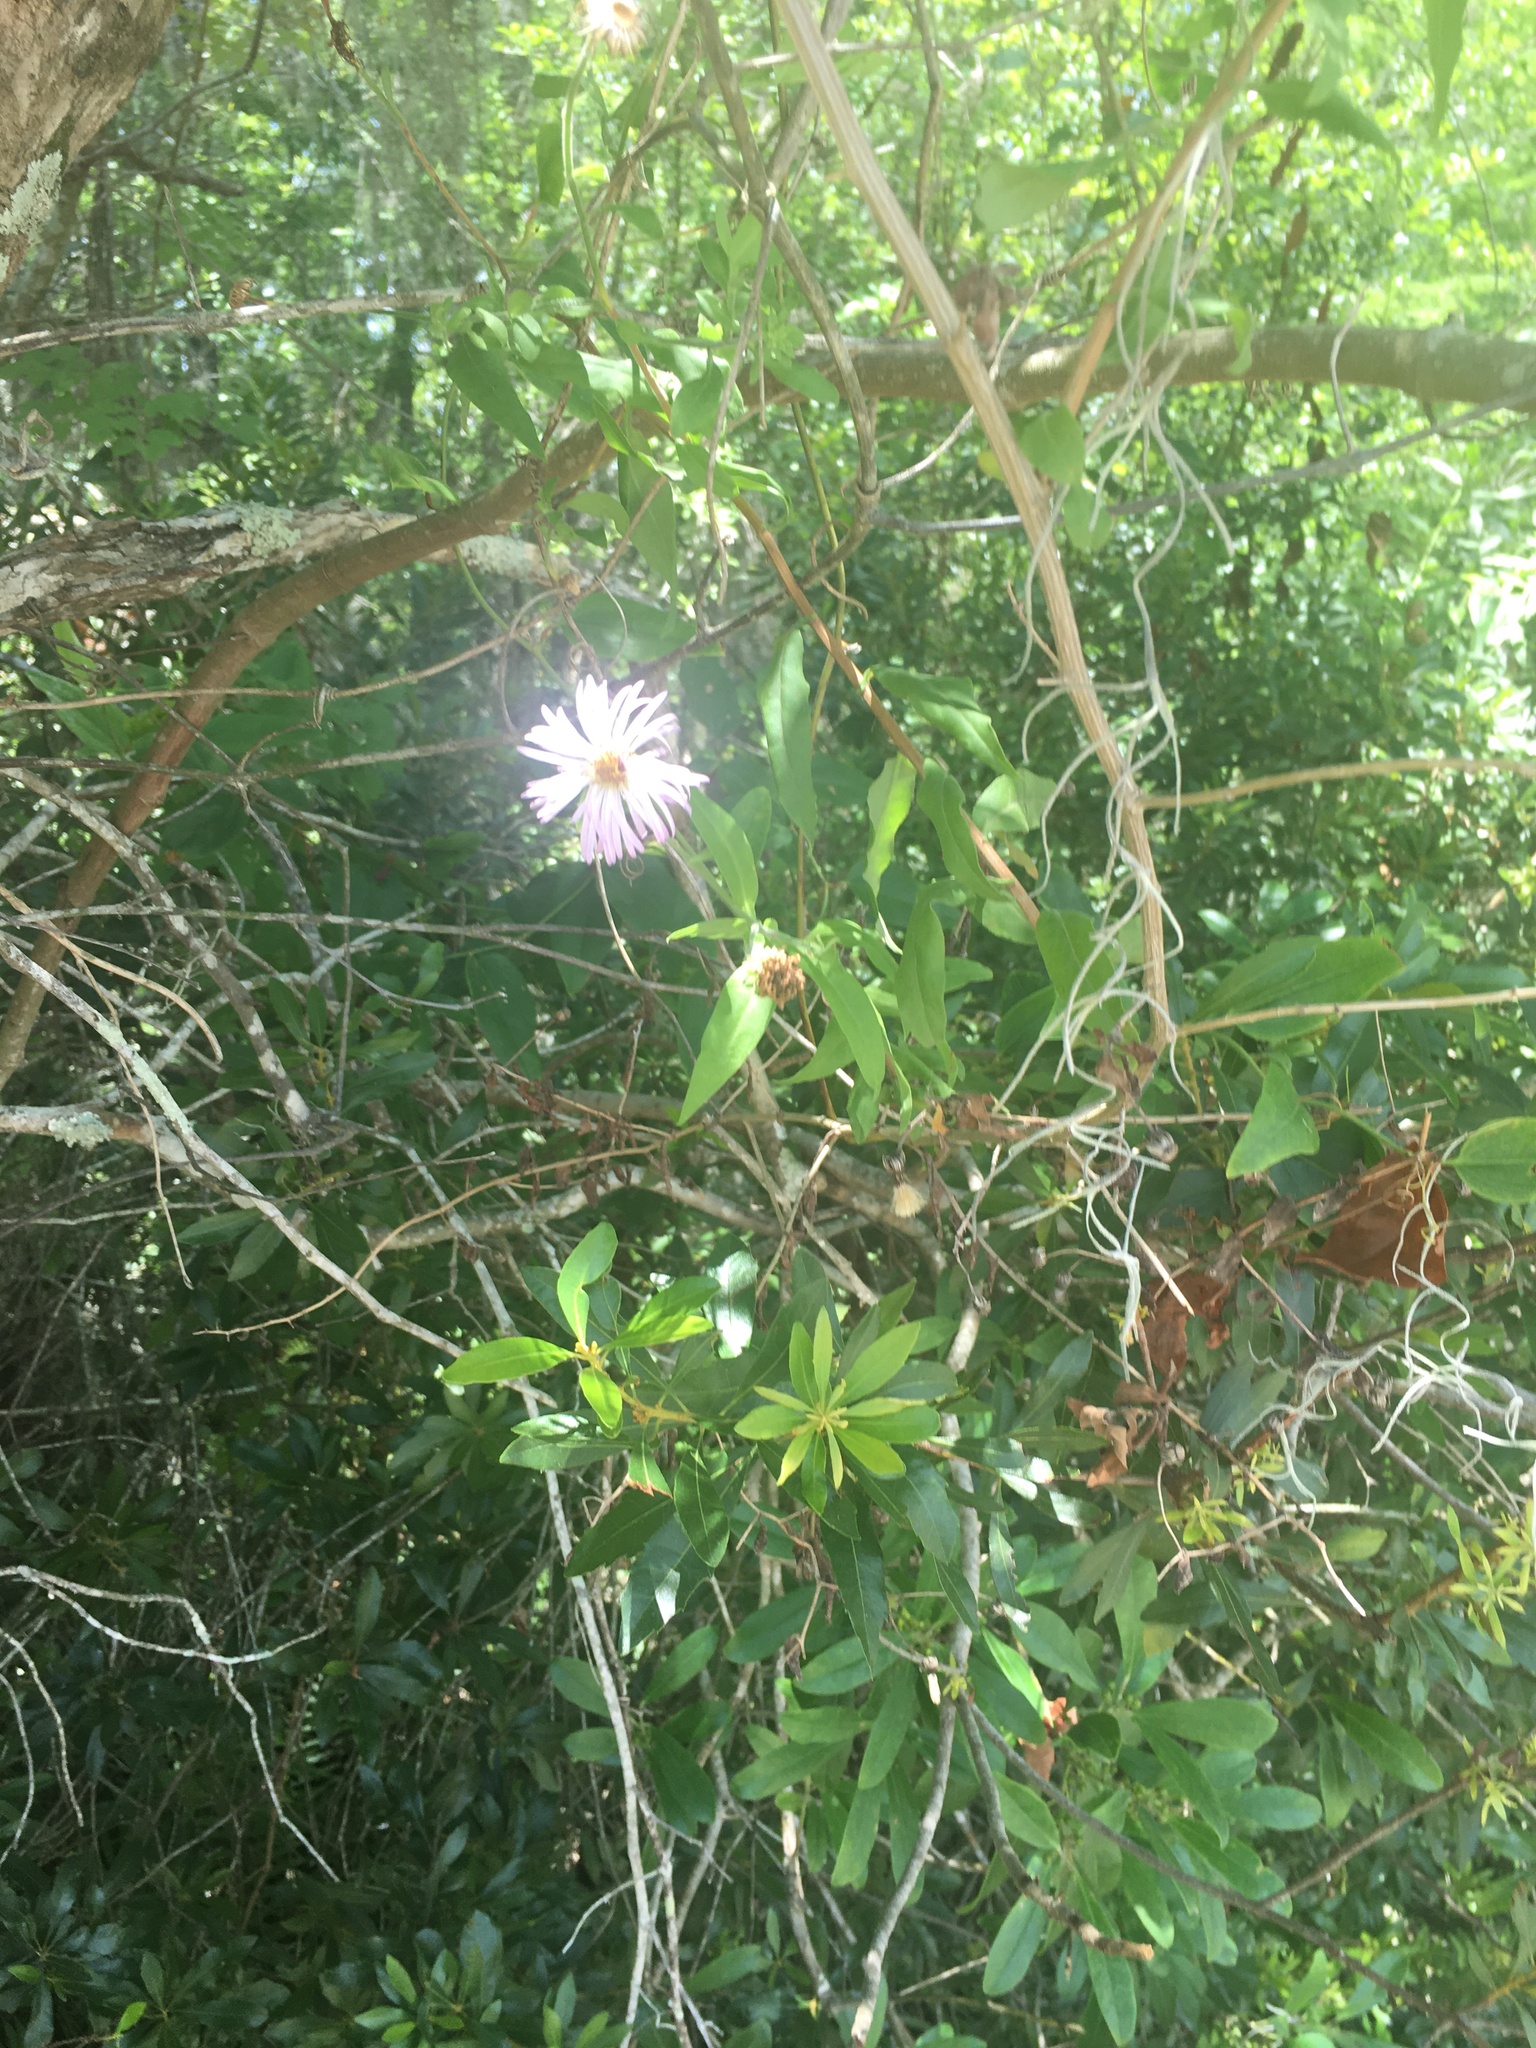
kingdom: Plantae
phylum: Tracheophyta
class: Magnoliopsida
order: Asterales
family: Asteraceae
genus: Ampelaster
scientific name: Ampelaster carolinianus
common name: Climbing aster
